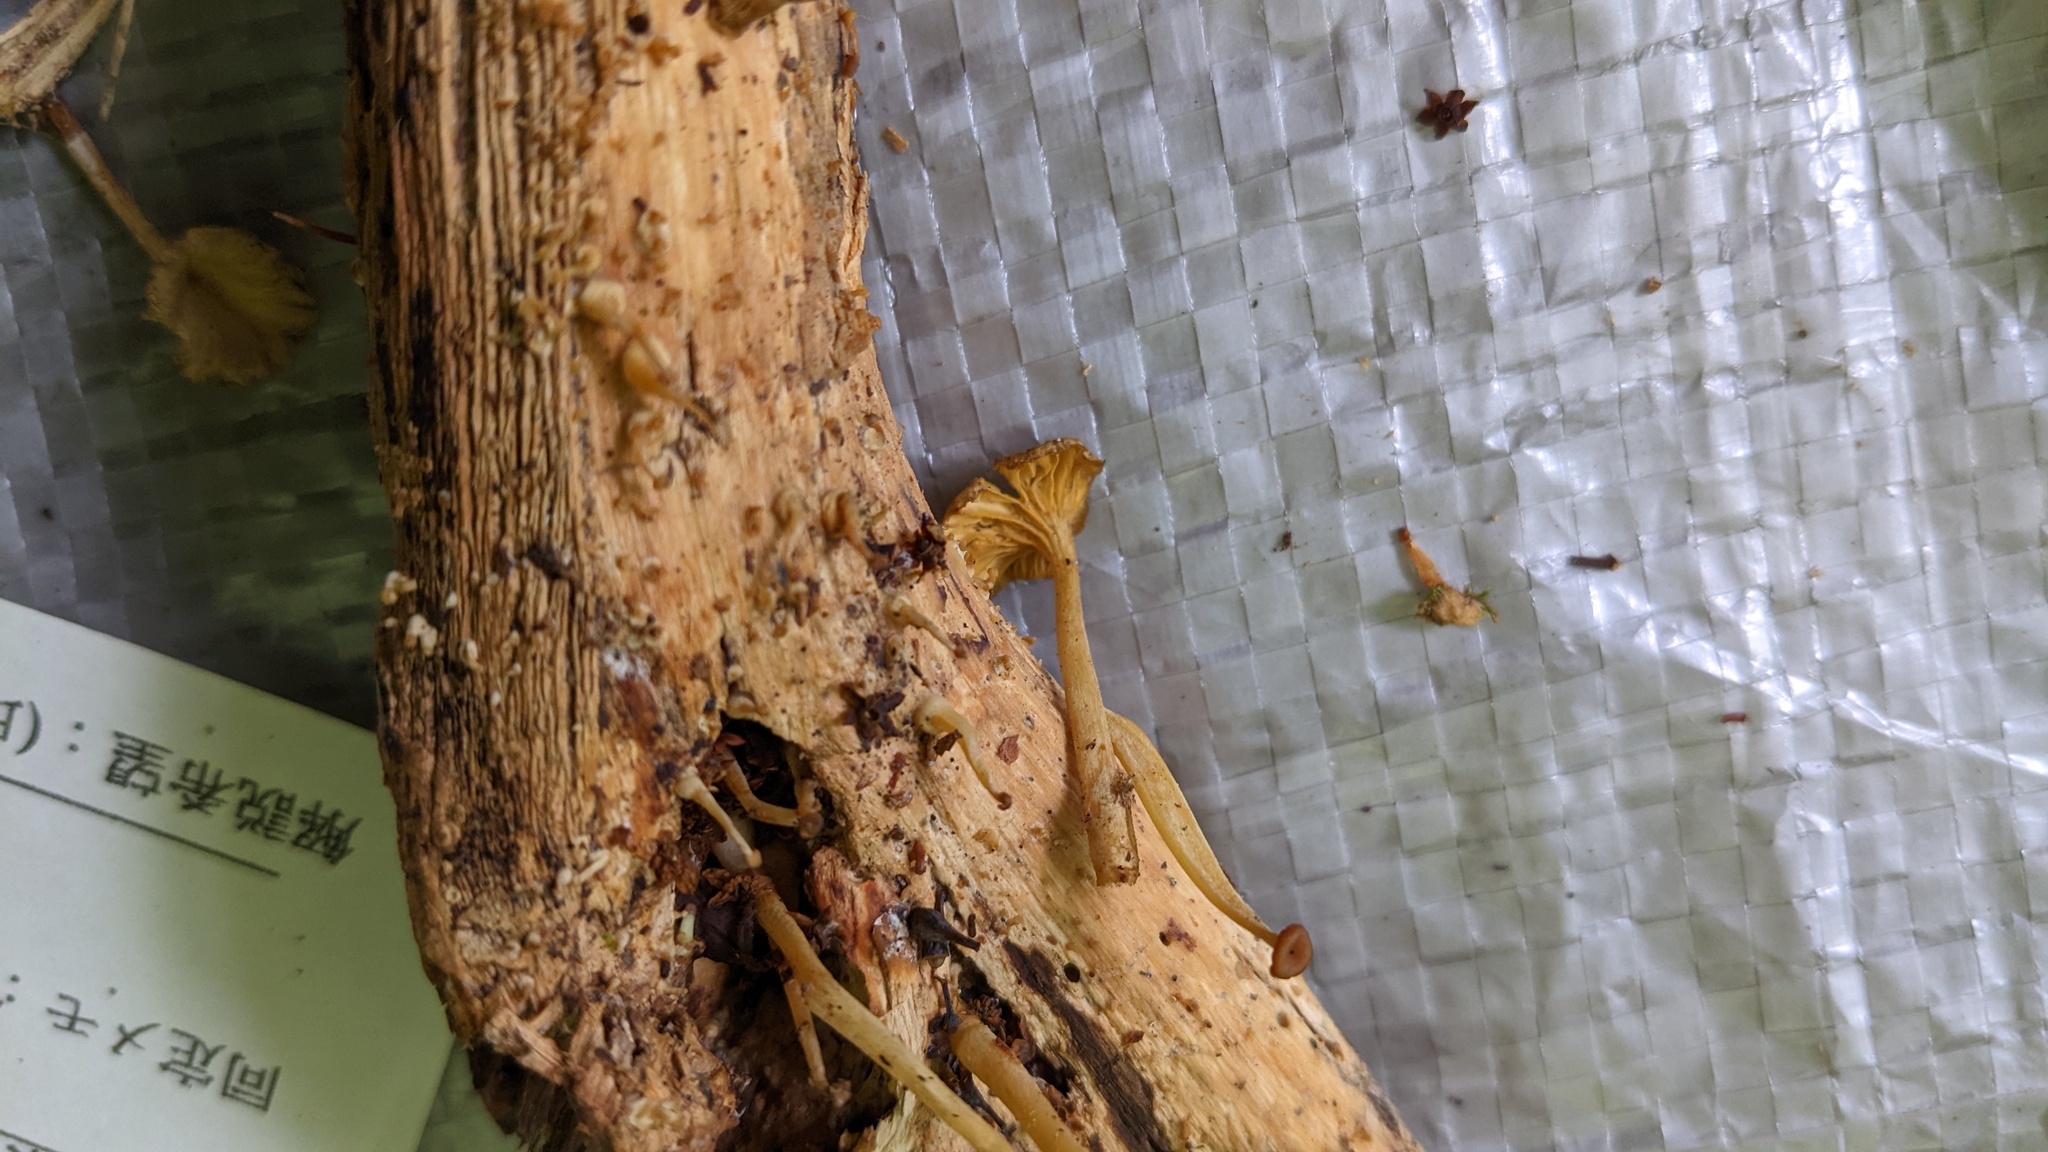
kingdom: Fungi
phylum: Basidiomycota
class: Agaricomycetes
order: Agaricales
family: Marasmiaceae
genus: Gerronema
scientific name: Gerronema nemorale
